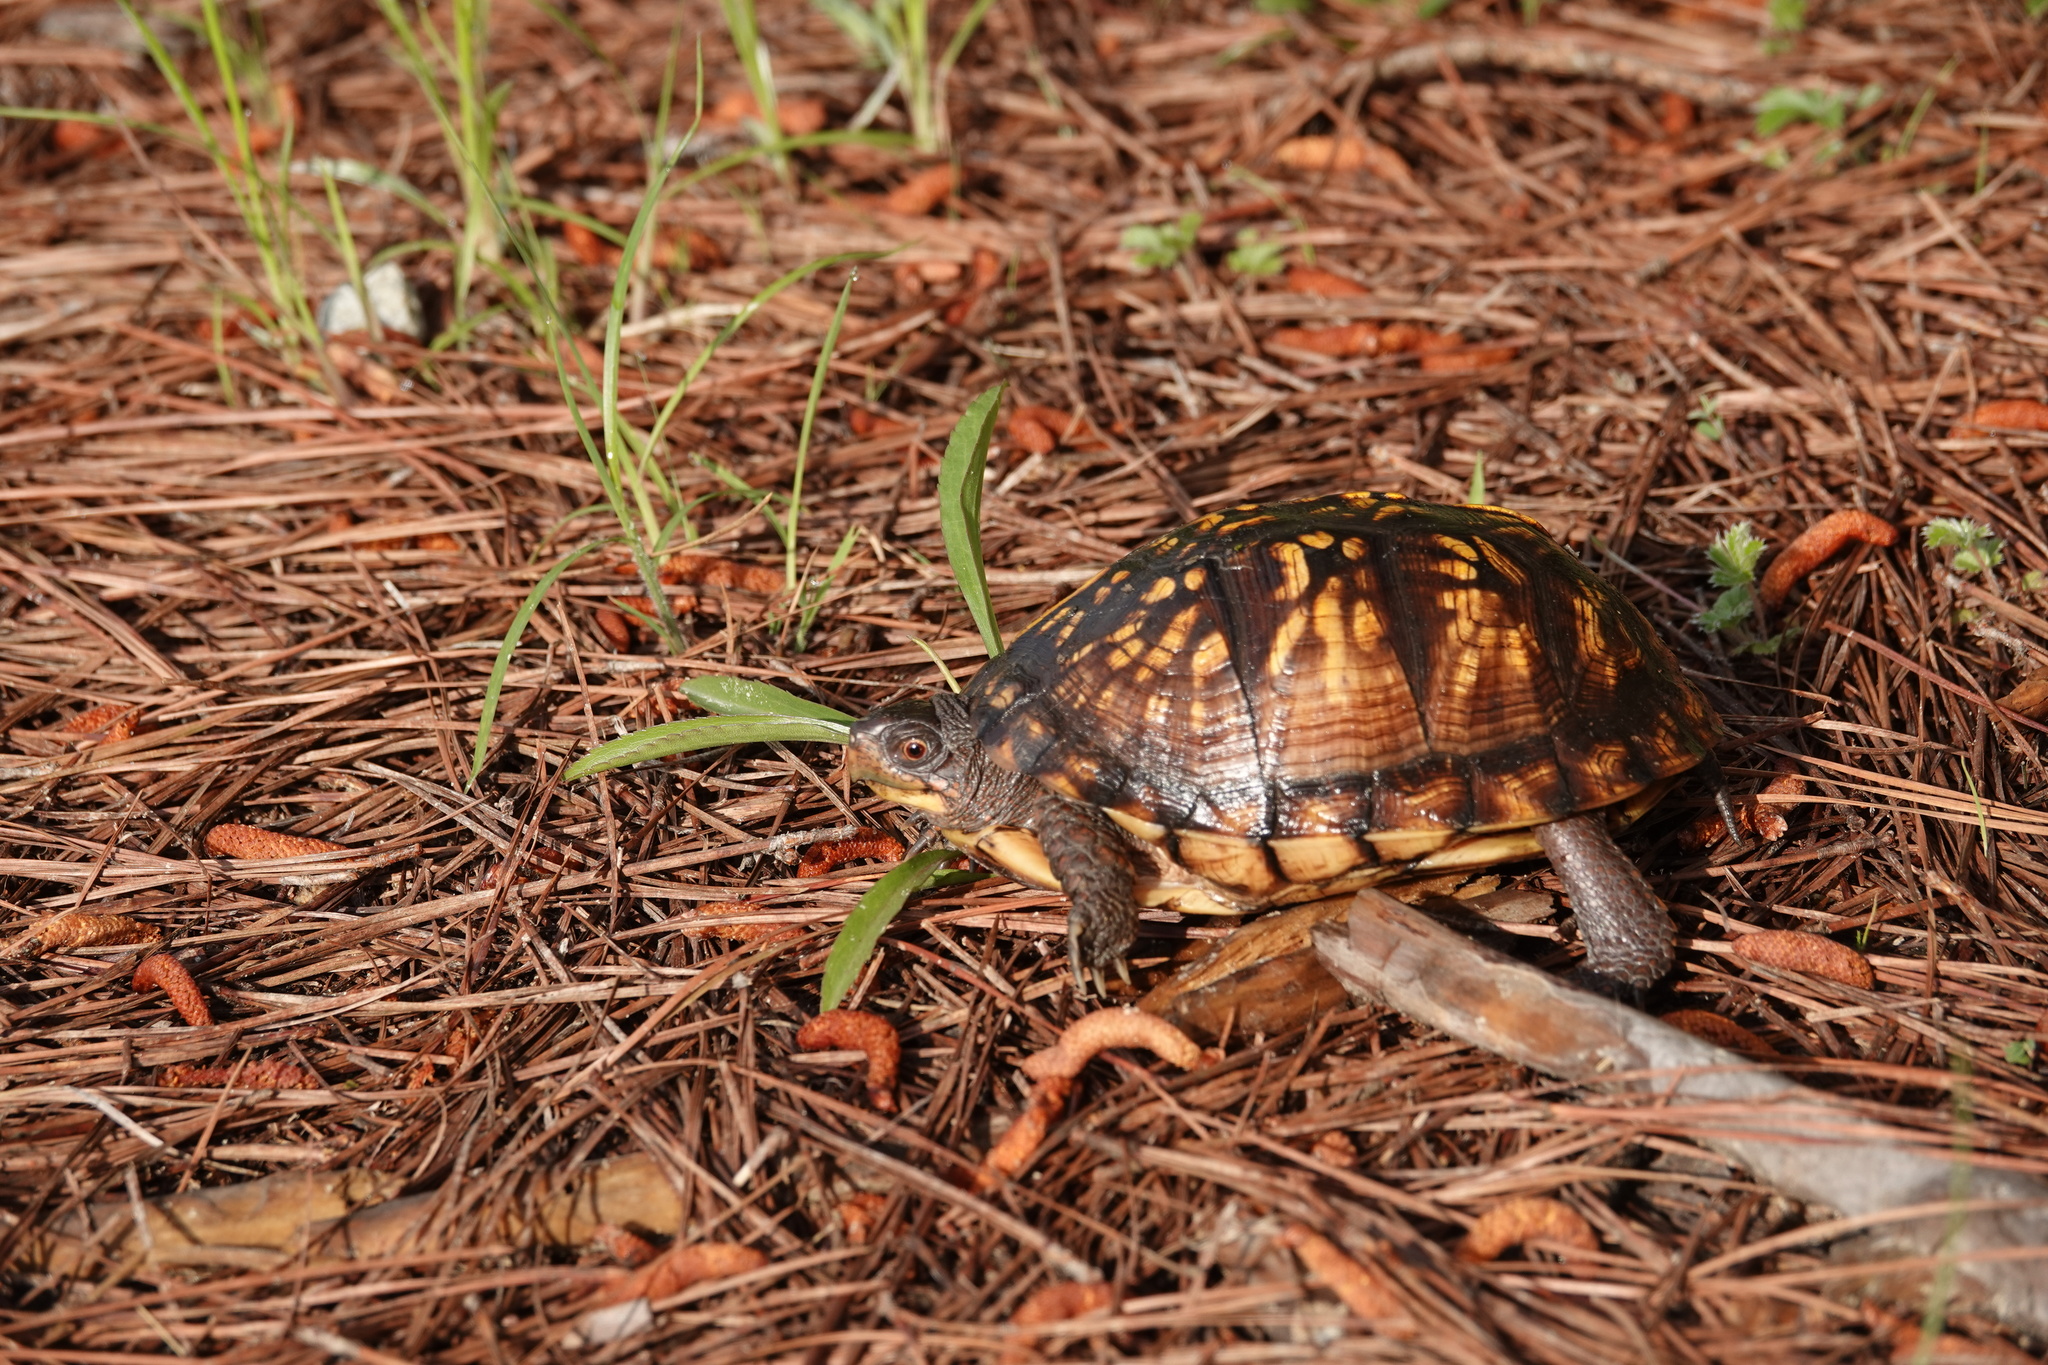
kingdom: Animalia
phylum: Chordata
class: Testudines
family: Emydidae
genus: Terrapene
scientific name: Terrapene carolina
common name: Common box turtle
